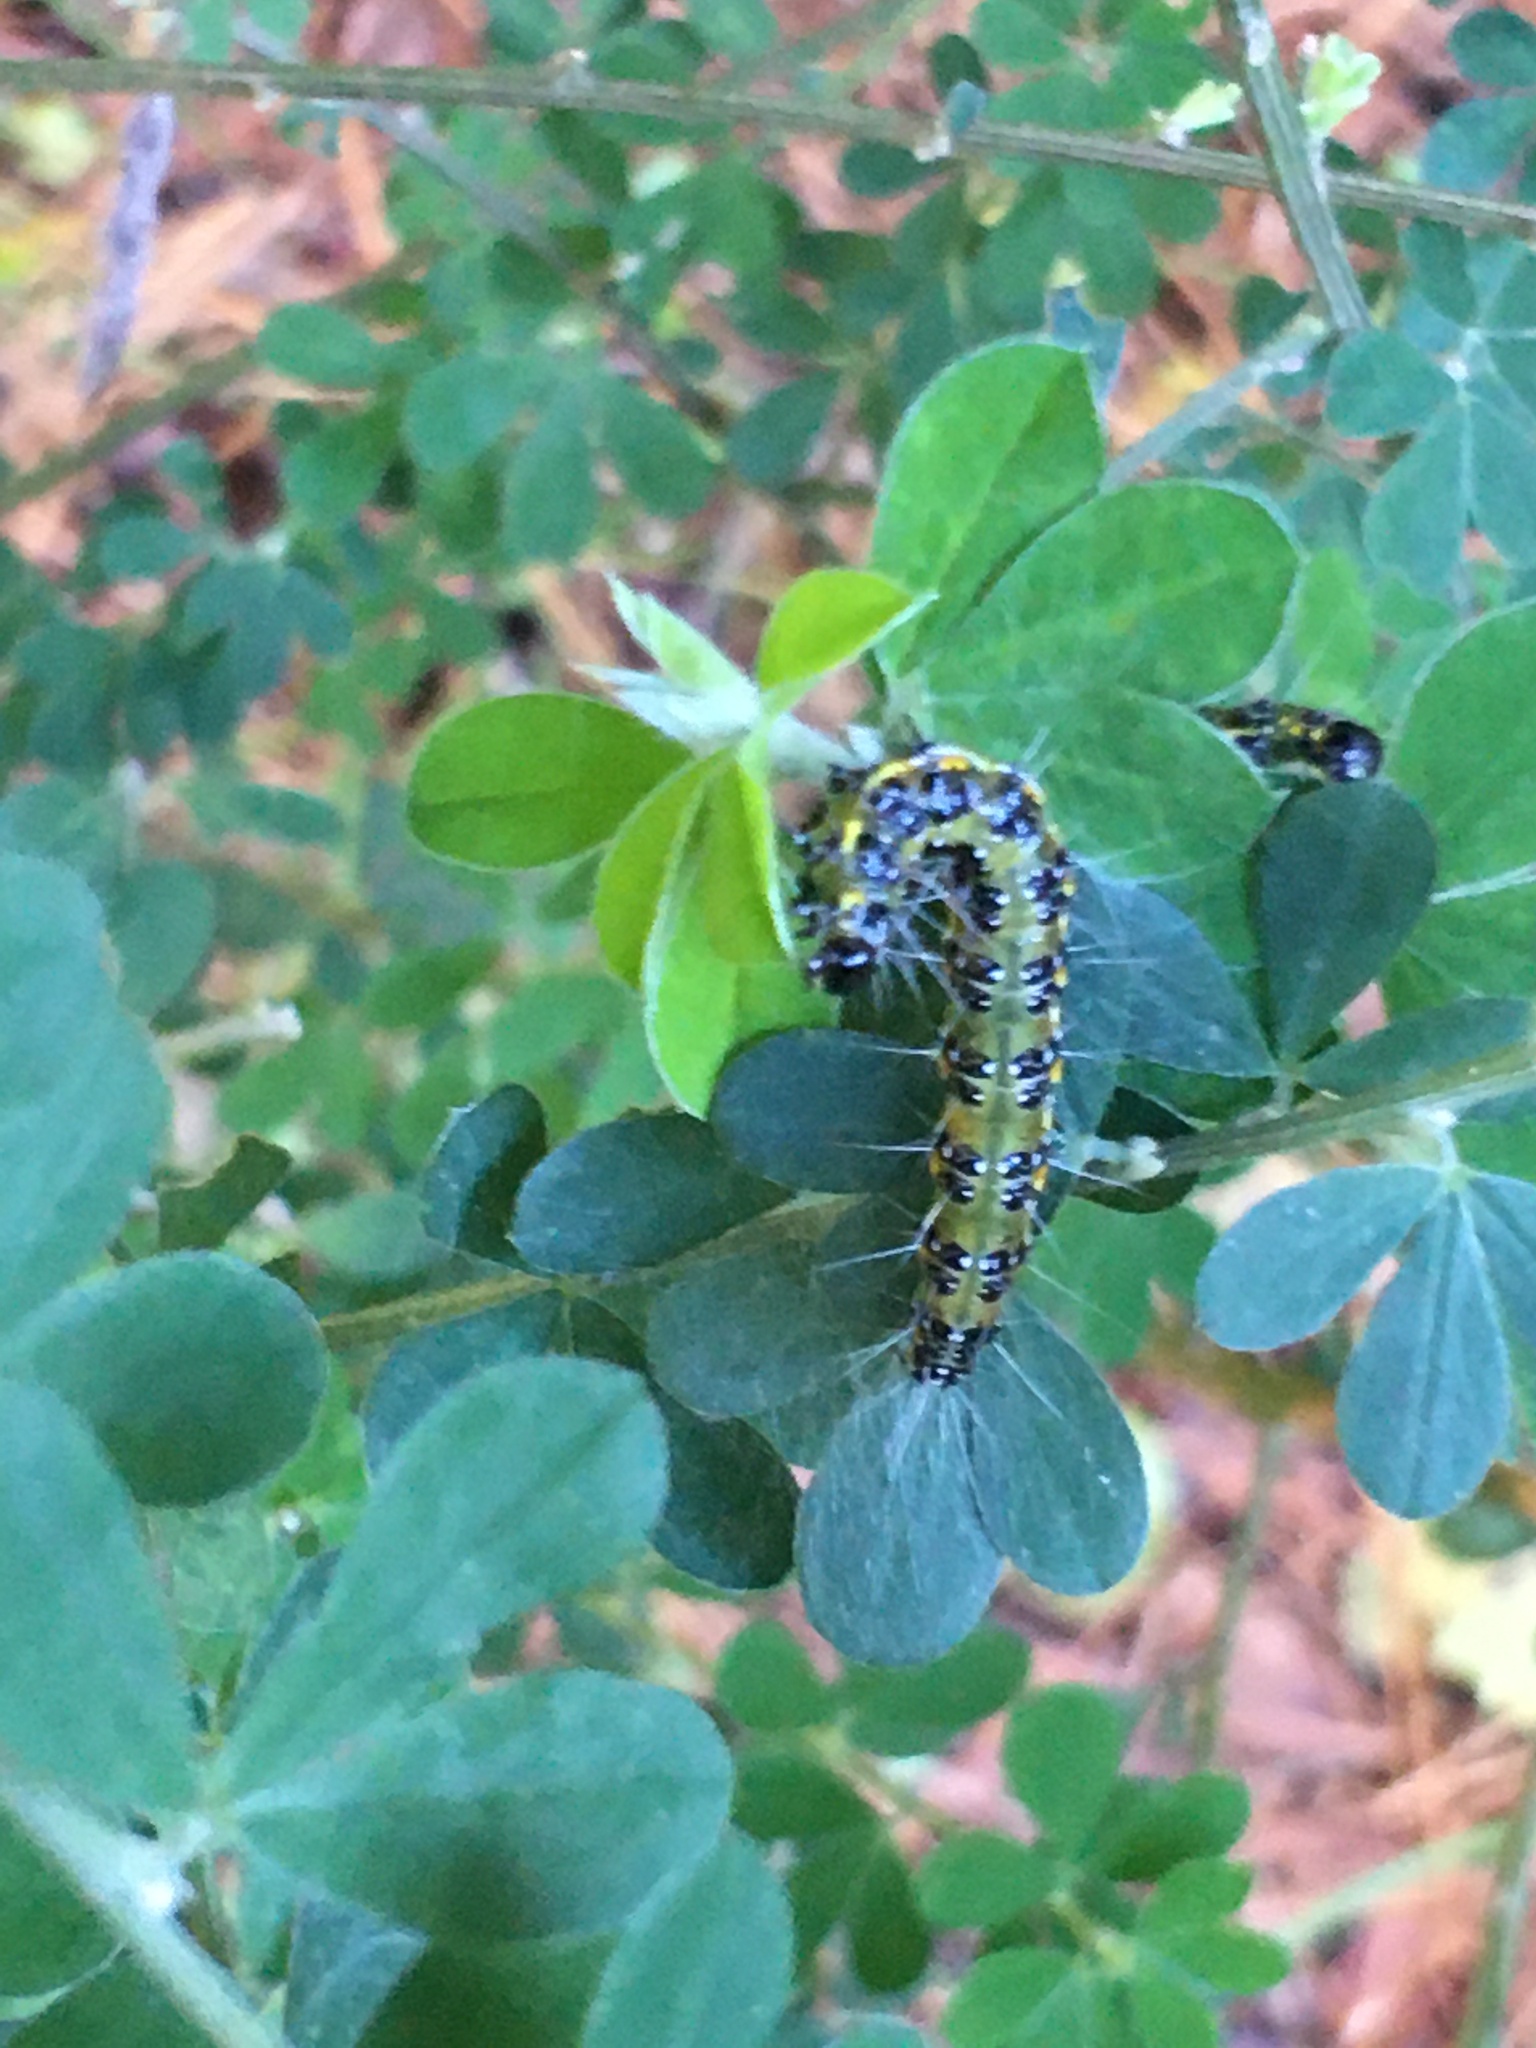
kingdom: Animalia
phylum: Arthropoda
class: Insecta
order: Lepidoptera
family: Crambidae
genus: Uresiphita
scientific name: Uresiphita gilvata
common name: Yellow-underwing pearl
